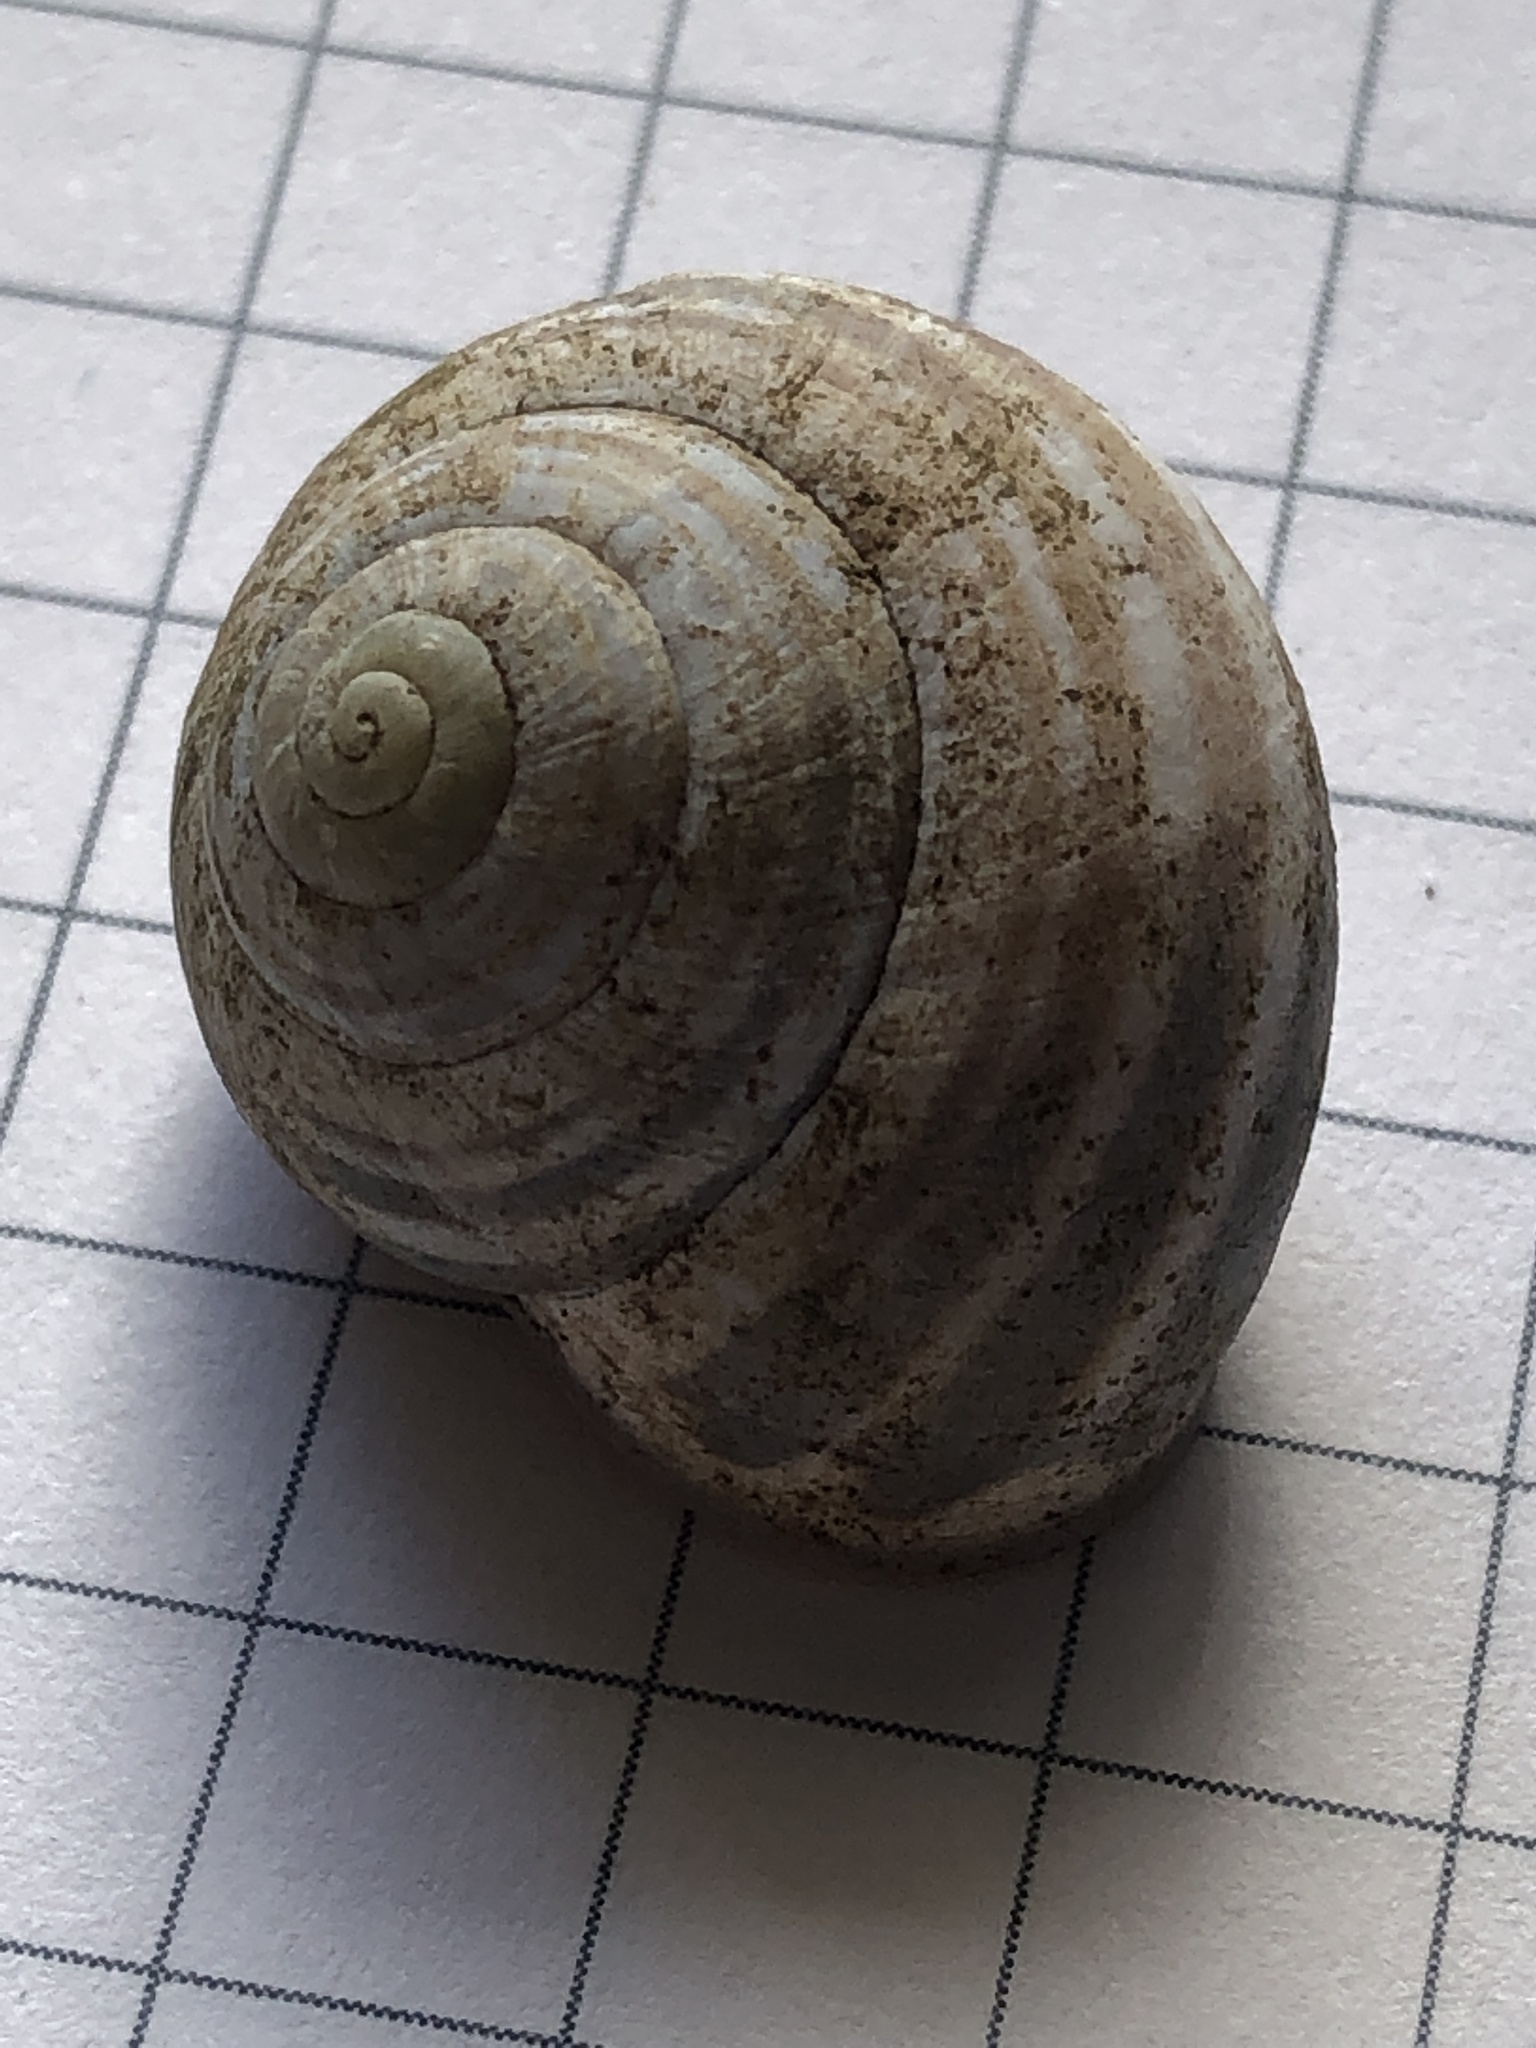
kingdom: Animalia
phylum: Mollusca
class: Gastropoda
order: Stylommatophora
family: Helicidae
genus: Cepaea
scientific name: Cepaea nemoralis
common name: Grovesnail
